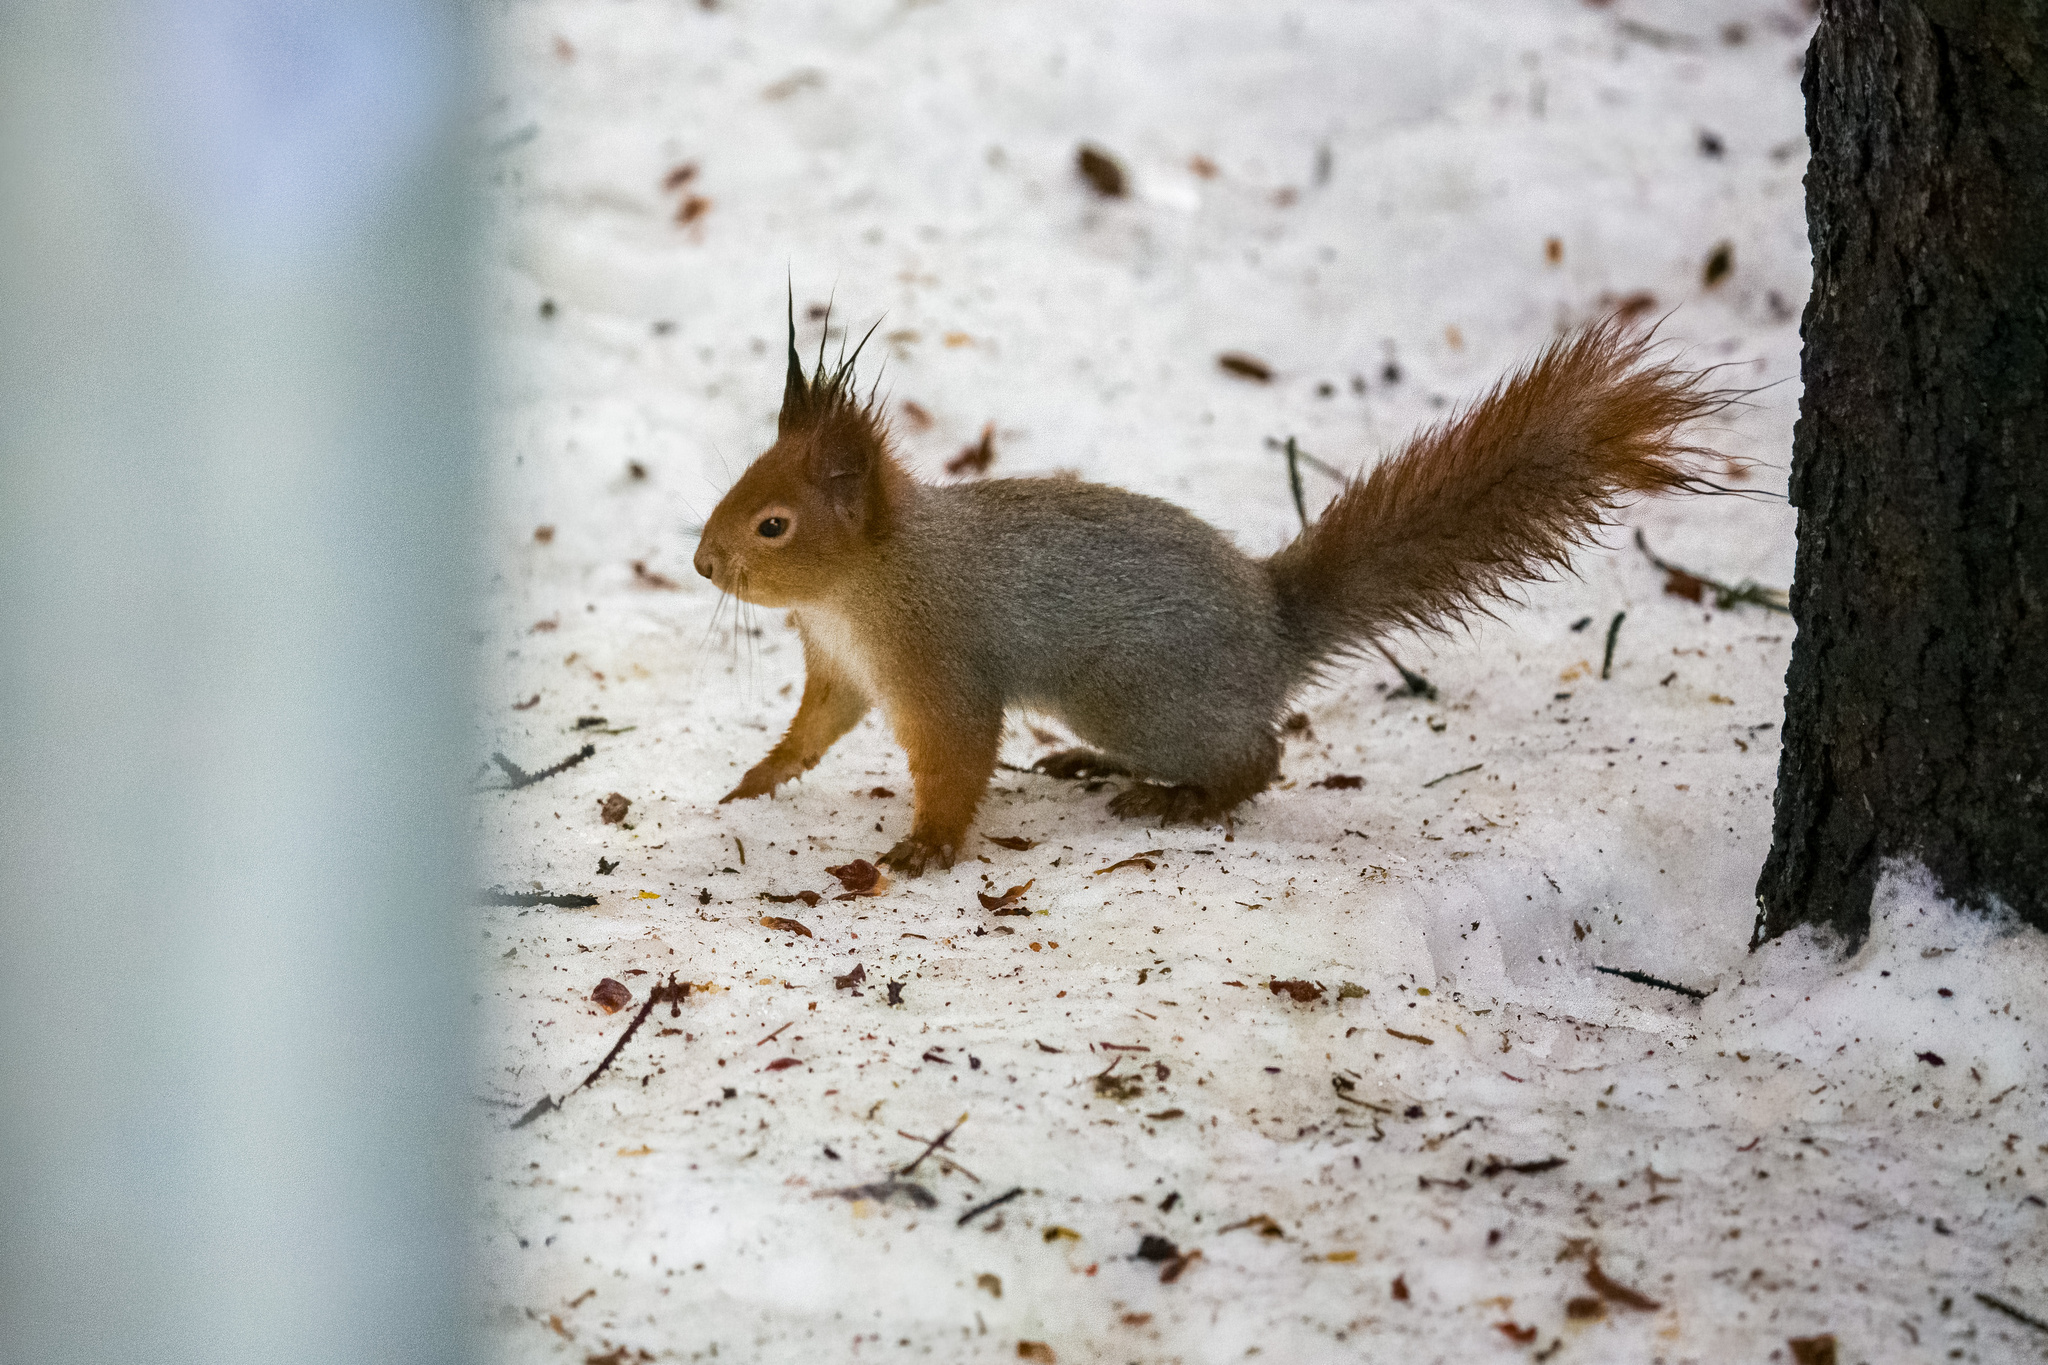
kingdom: Animalia
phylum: Chordata
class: Mammalia
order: Rodentia
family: Sciuridae
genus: Sciurus
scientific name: Sciurus vulgaris
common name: Eurasian red squirrel
